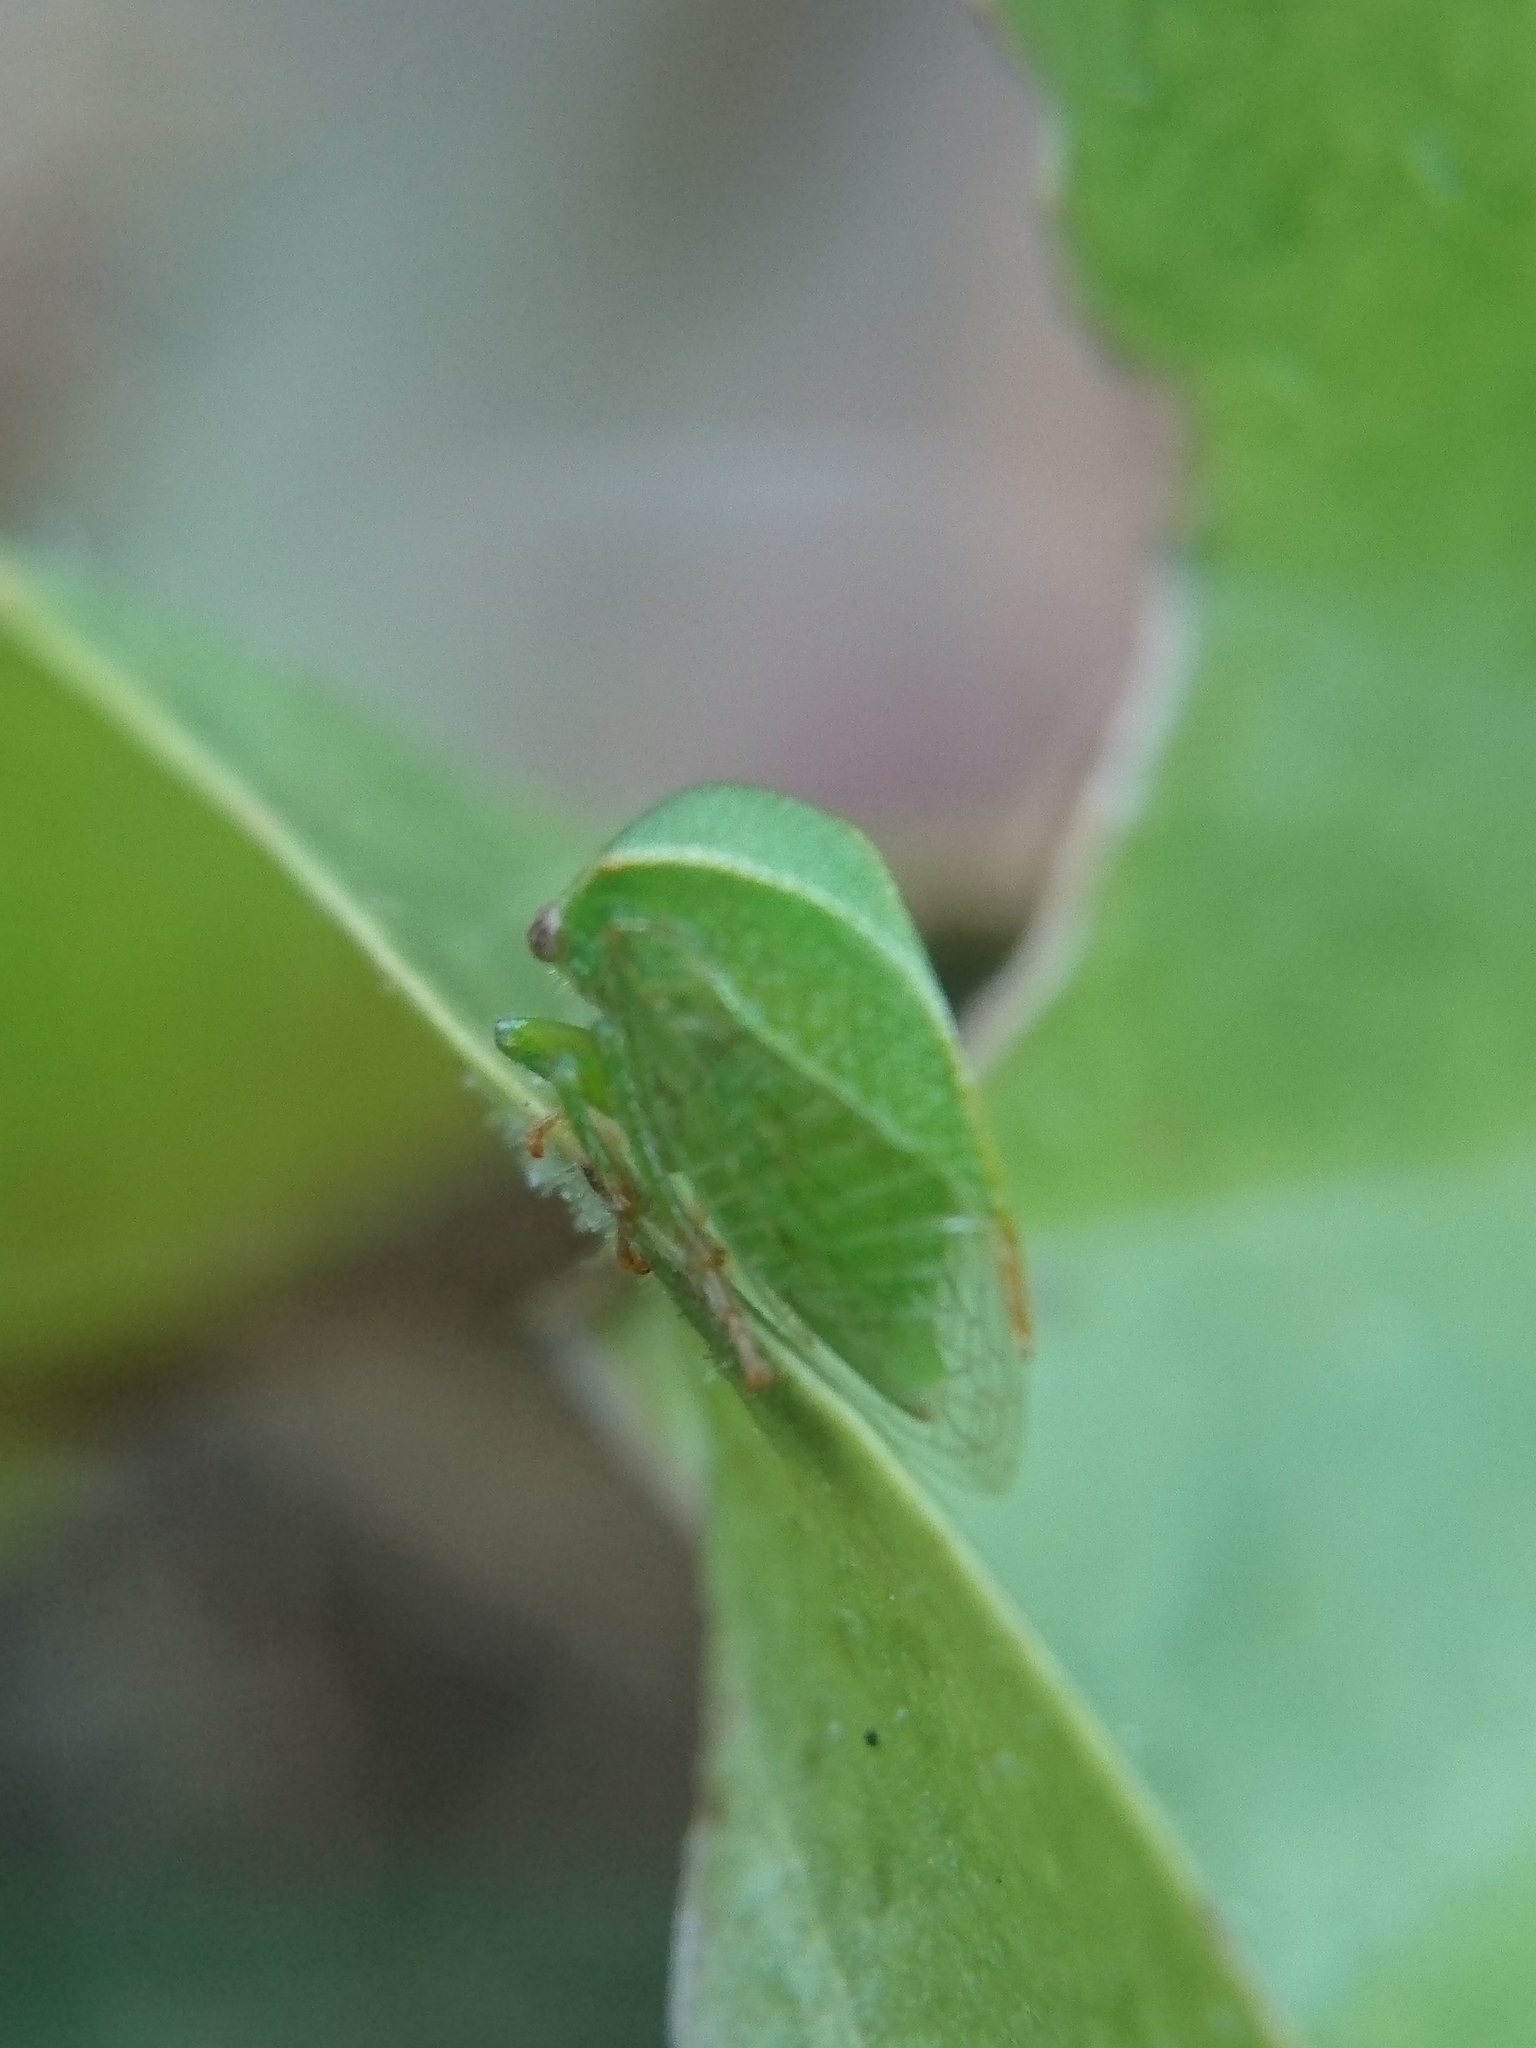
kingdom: Animalia
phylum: Arthropoda
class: Insecta
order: Hemiptera
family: Membracidae
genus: Spissistilus
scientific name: Spissistilus festina
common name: Membracid bug
